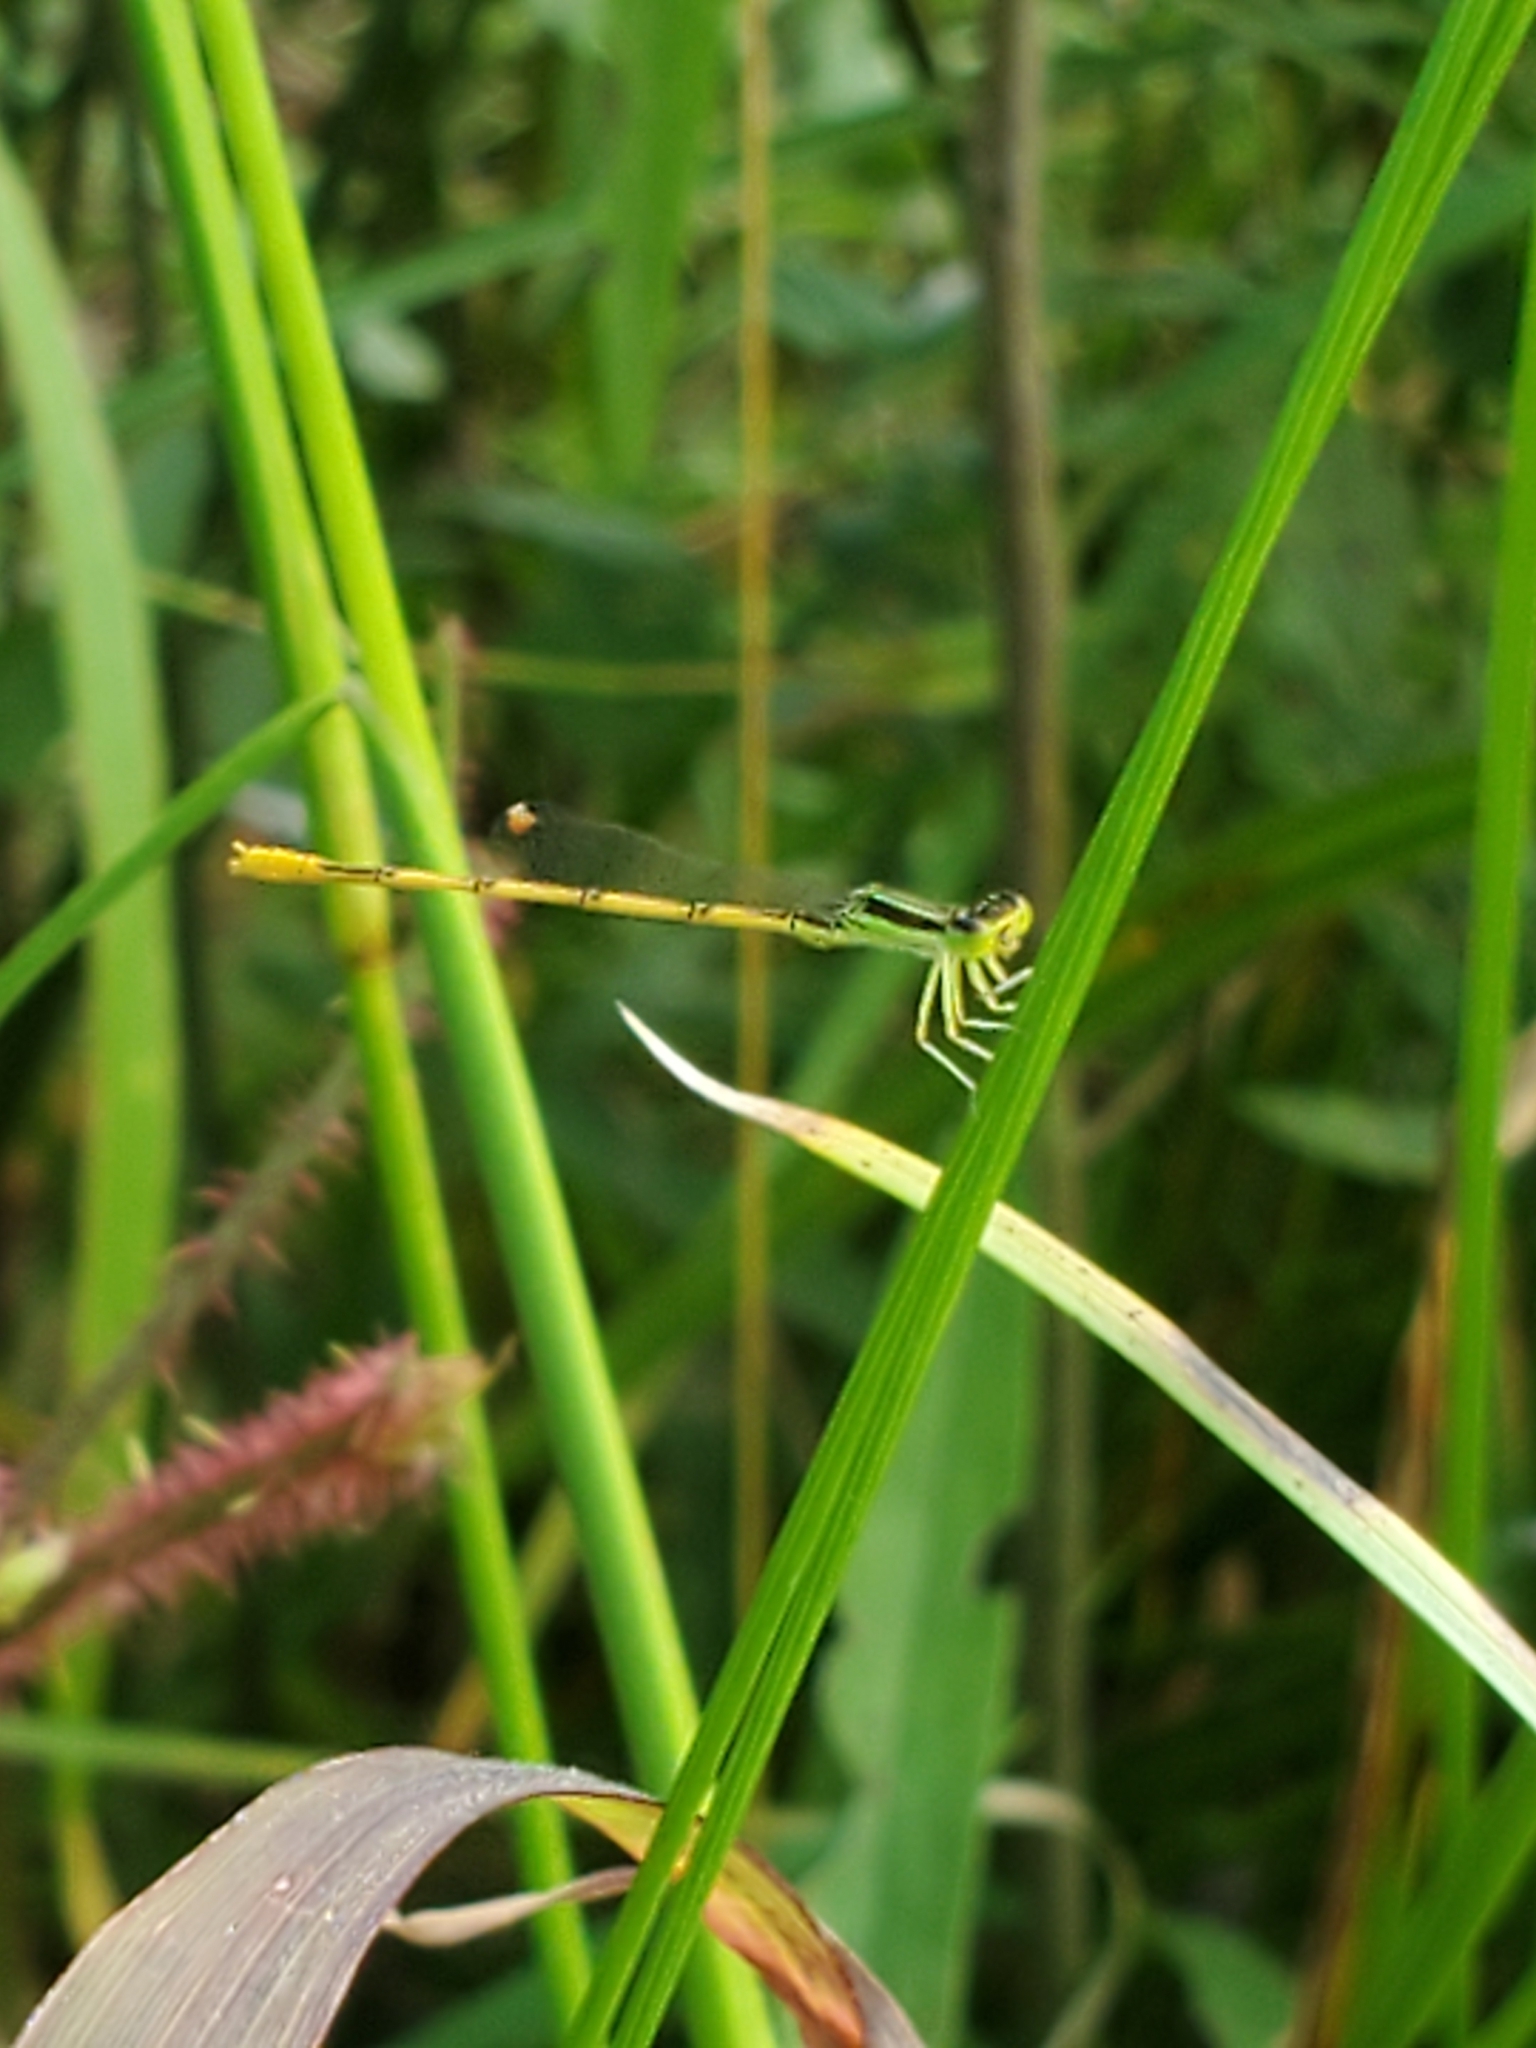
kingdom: Animalia
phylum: Arthropoda
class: Insecta
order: Odonata
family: Coenagrionidae
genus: Ischnura
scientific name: Ischnura hastata
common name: Citrine forktail
